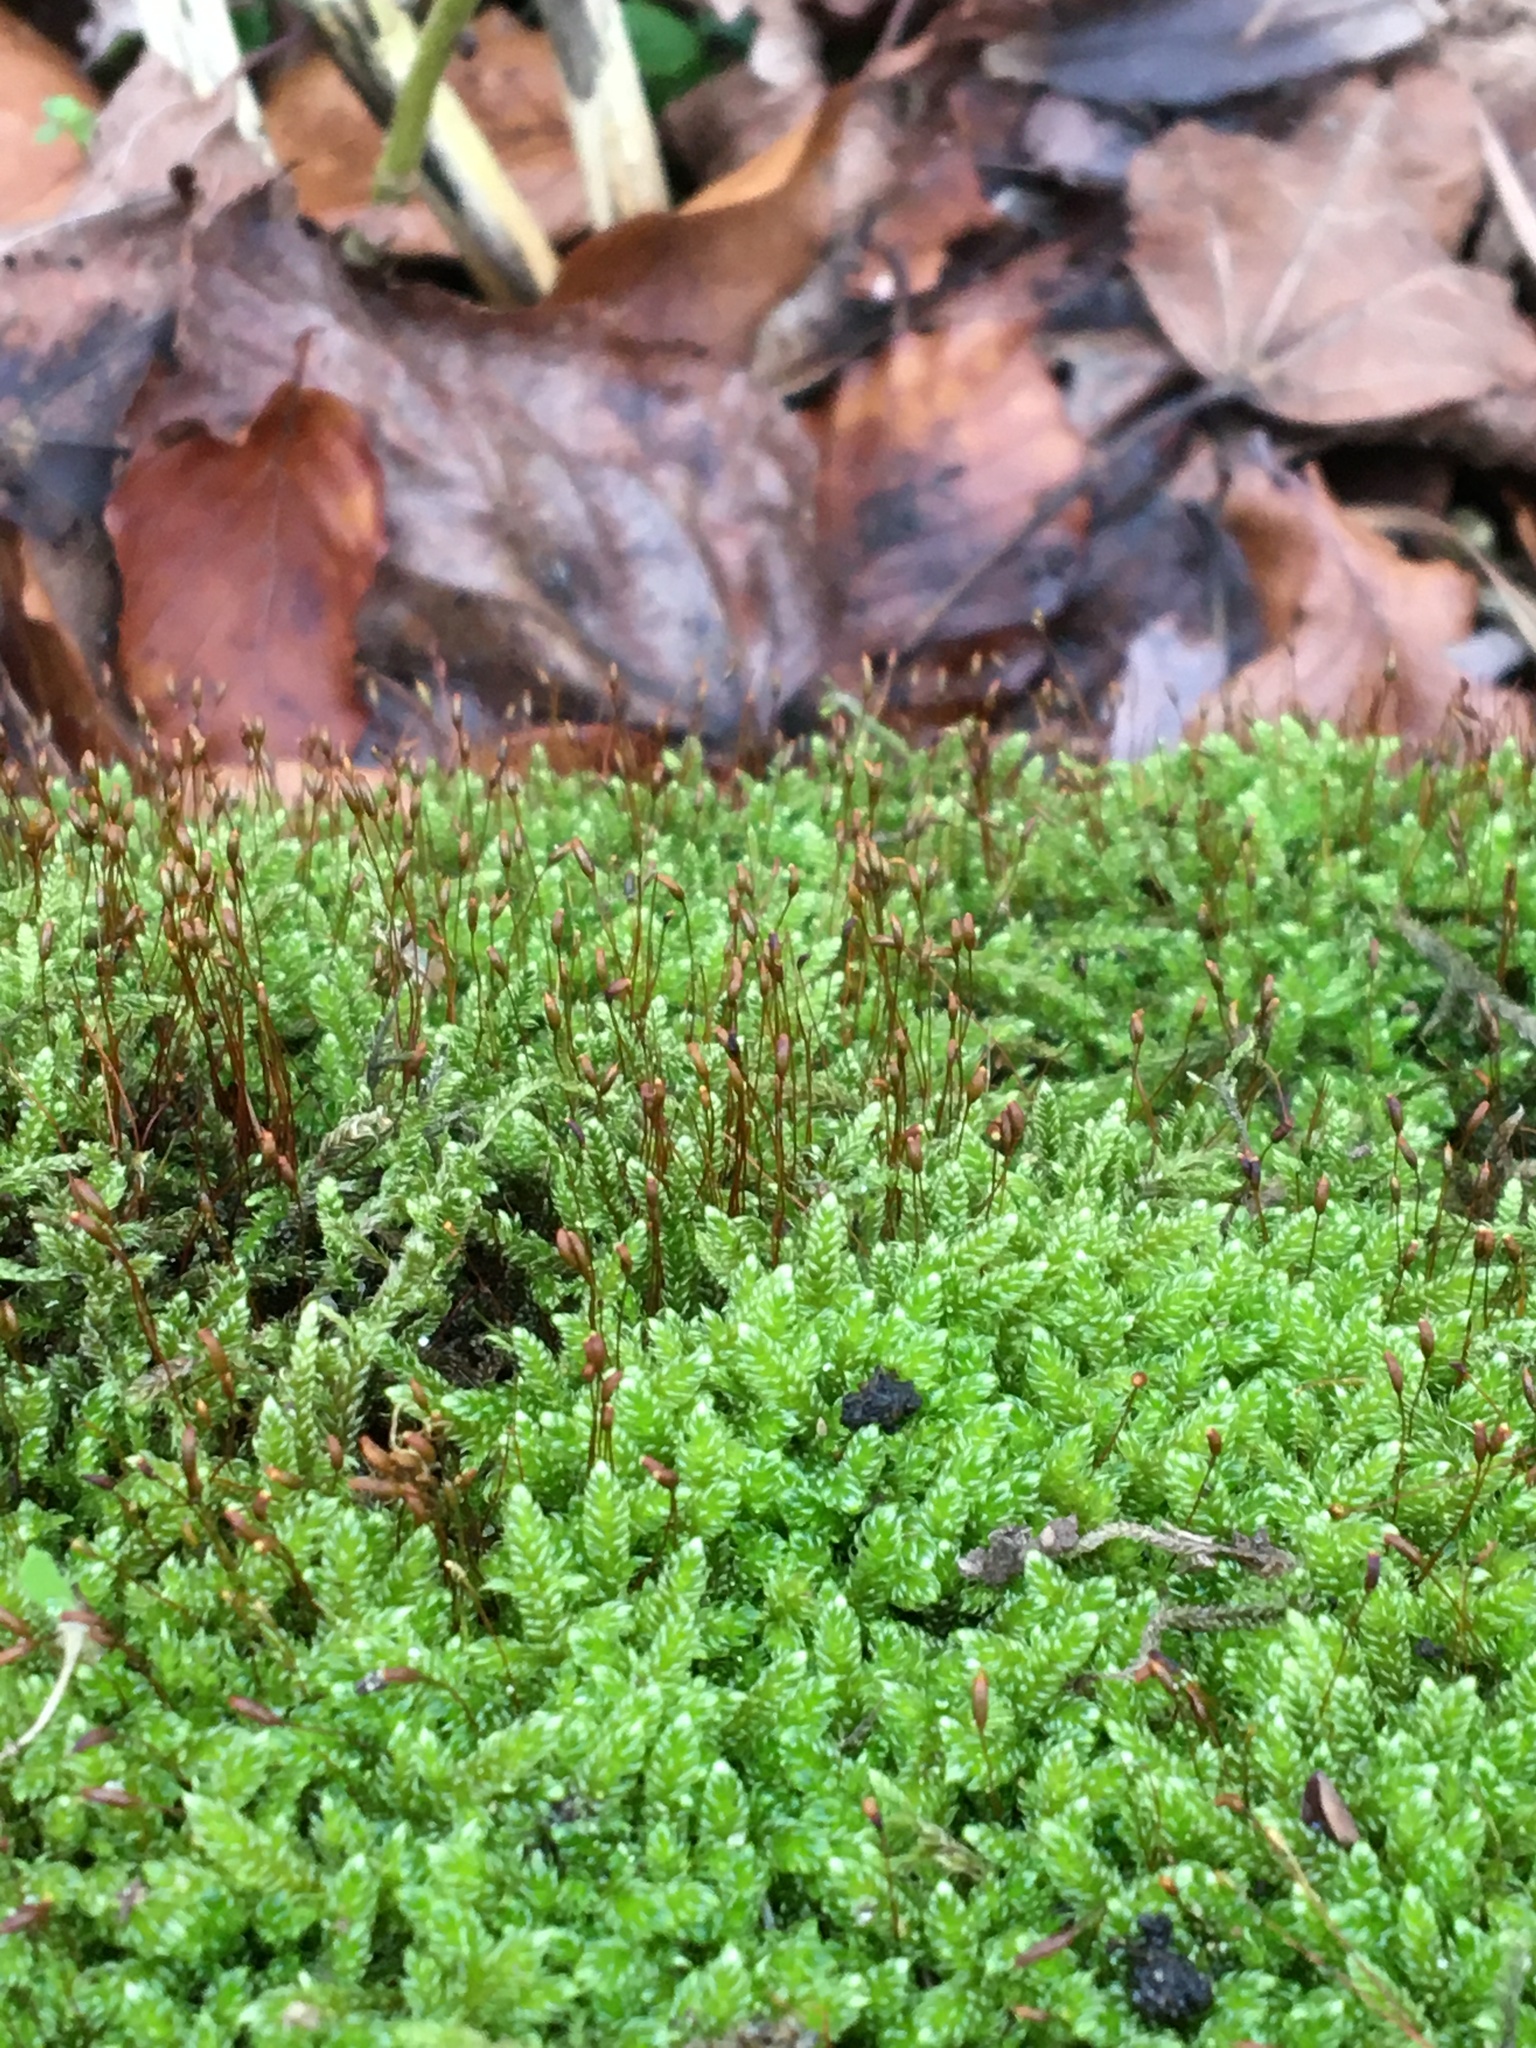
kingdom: Plantae
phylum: Bryophyta
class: Bryopsida
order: Hypnales
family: Hypnaceae
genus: Hypnum
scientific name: Hypnum cupressiforme
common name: Cypress-leaved plait-moss
